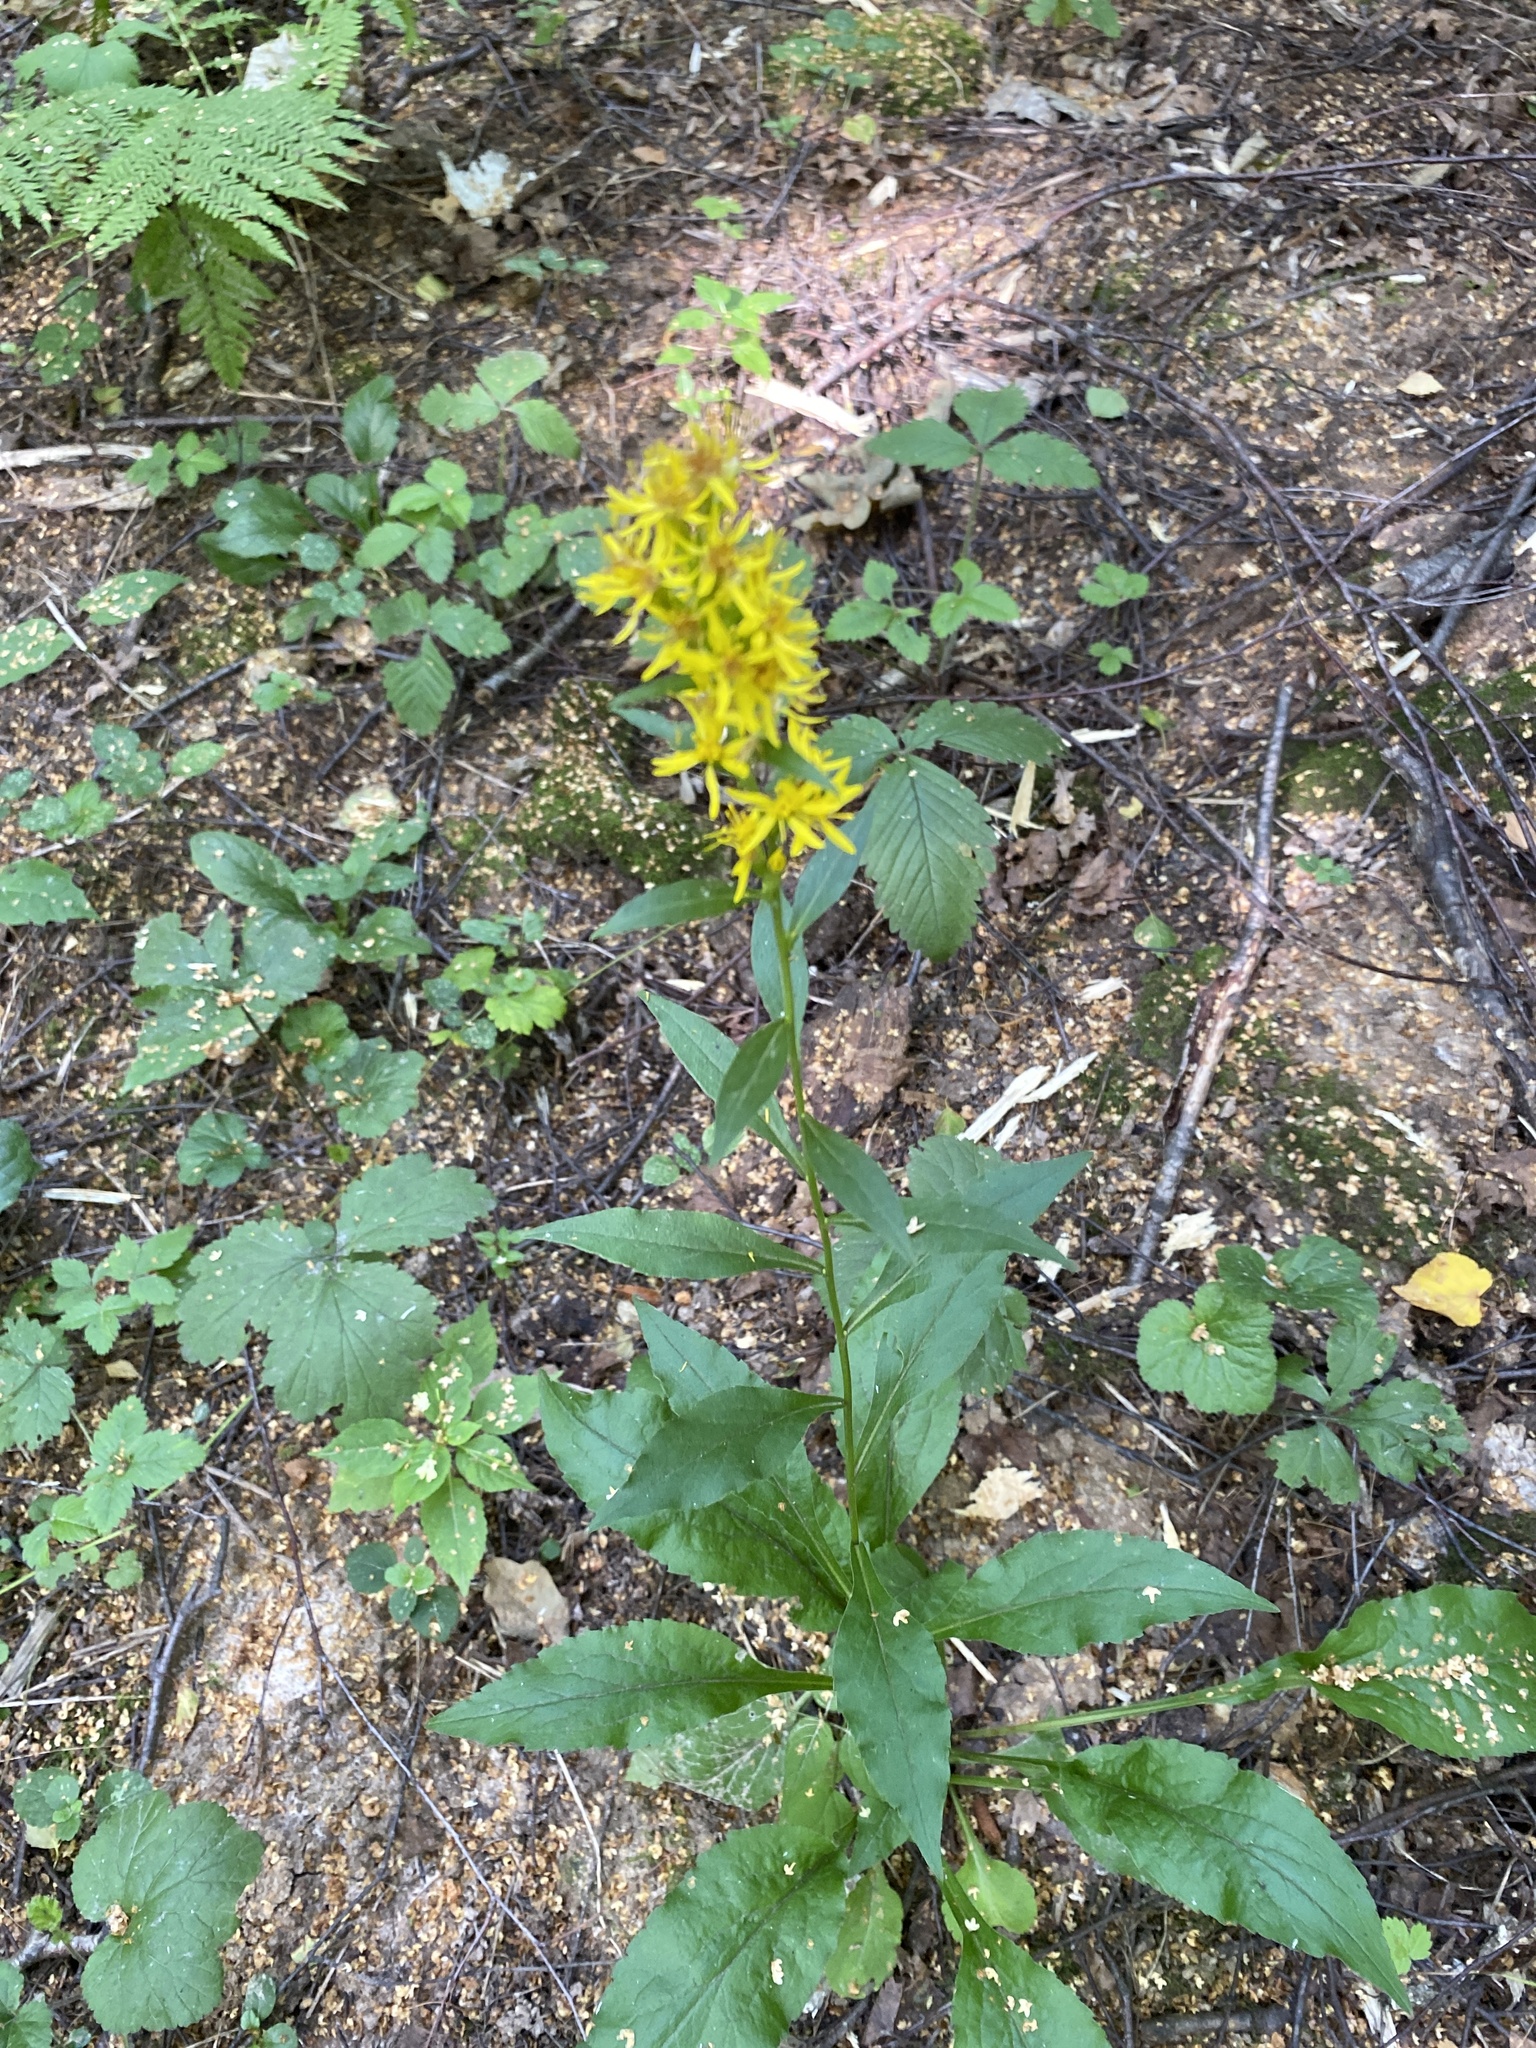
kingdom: Plantae
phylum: Tracheophyta
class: Magnoliopsida
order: Asterales
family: Asteraceae
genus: Solidago
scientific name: Solidago virgaurea
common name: Goldenrod
